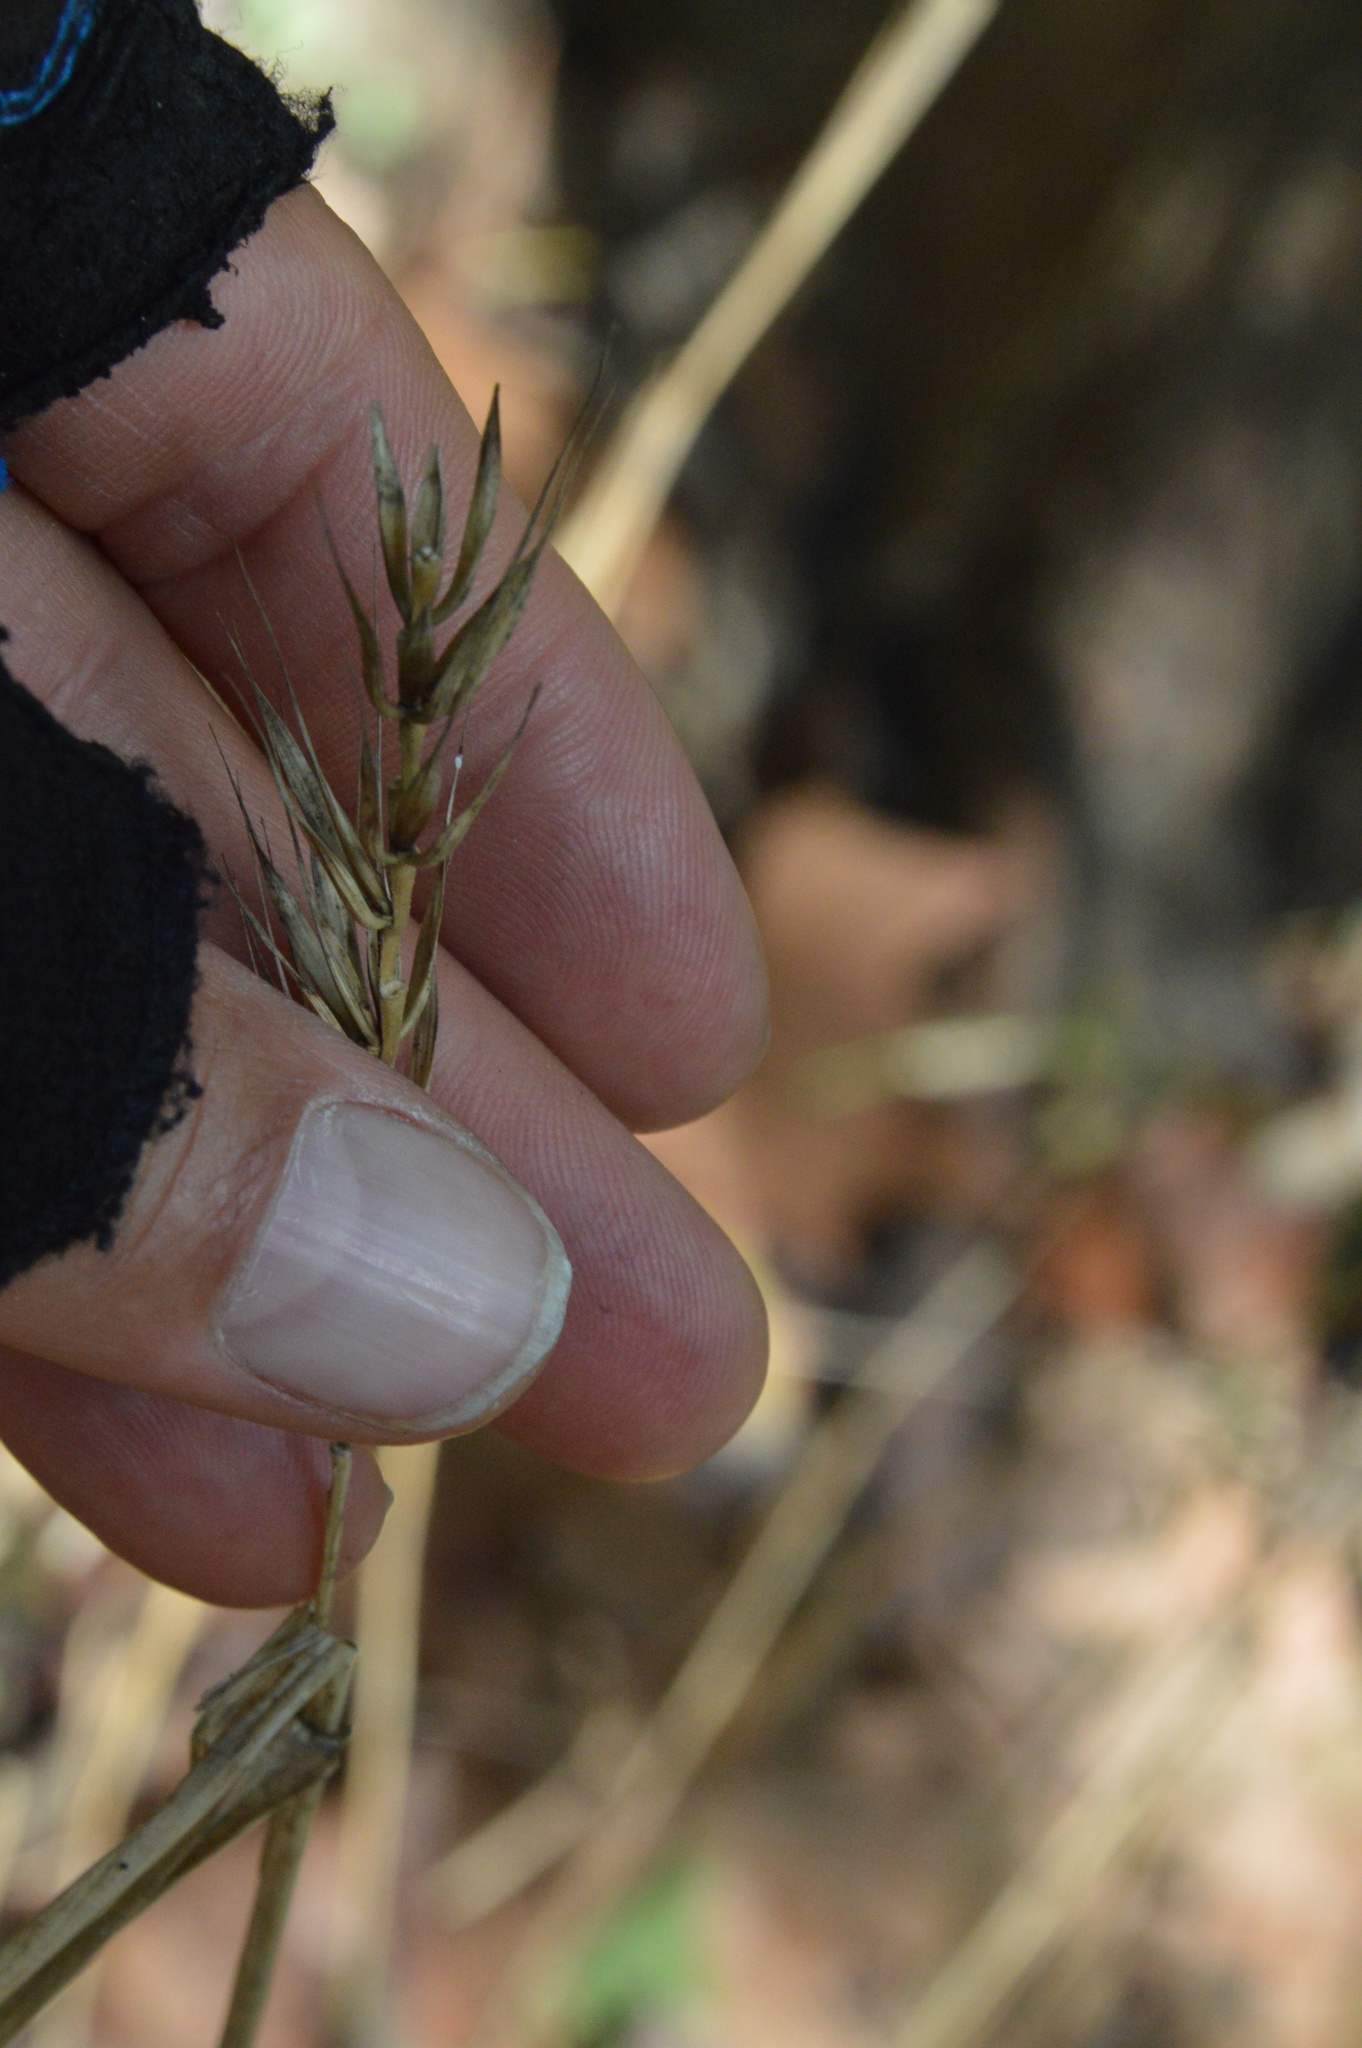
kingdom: Plantae
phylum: Tracheophyta
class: Liliopsida
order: Poales
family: Poaceae
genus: Elymus
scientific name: Elymus virginicus
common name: Common eastern wildrye
